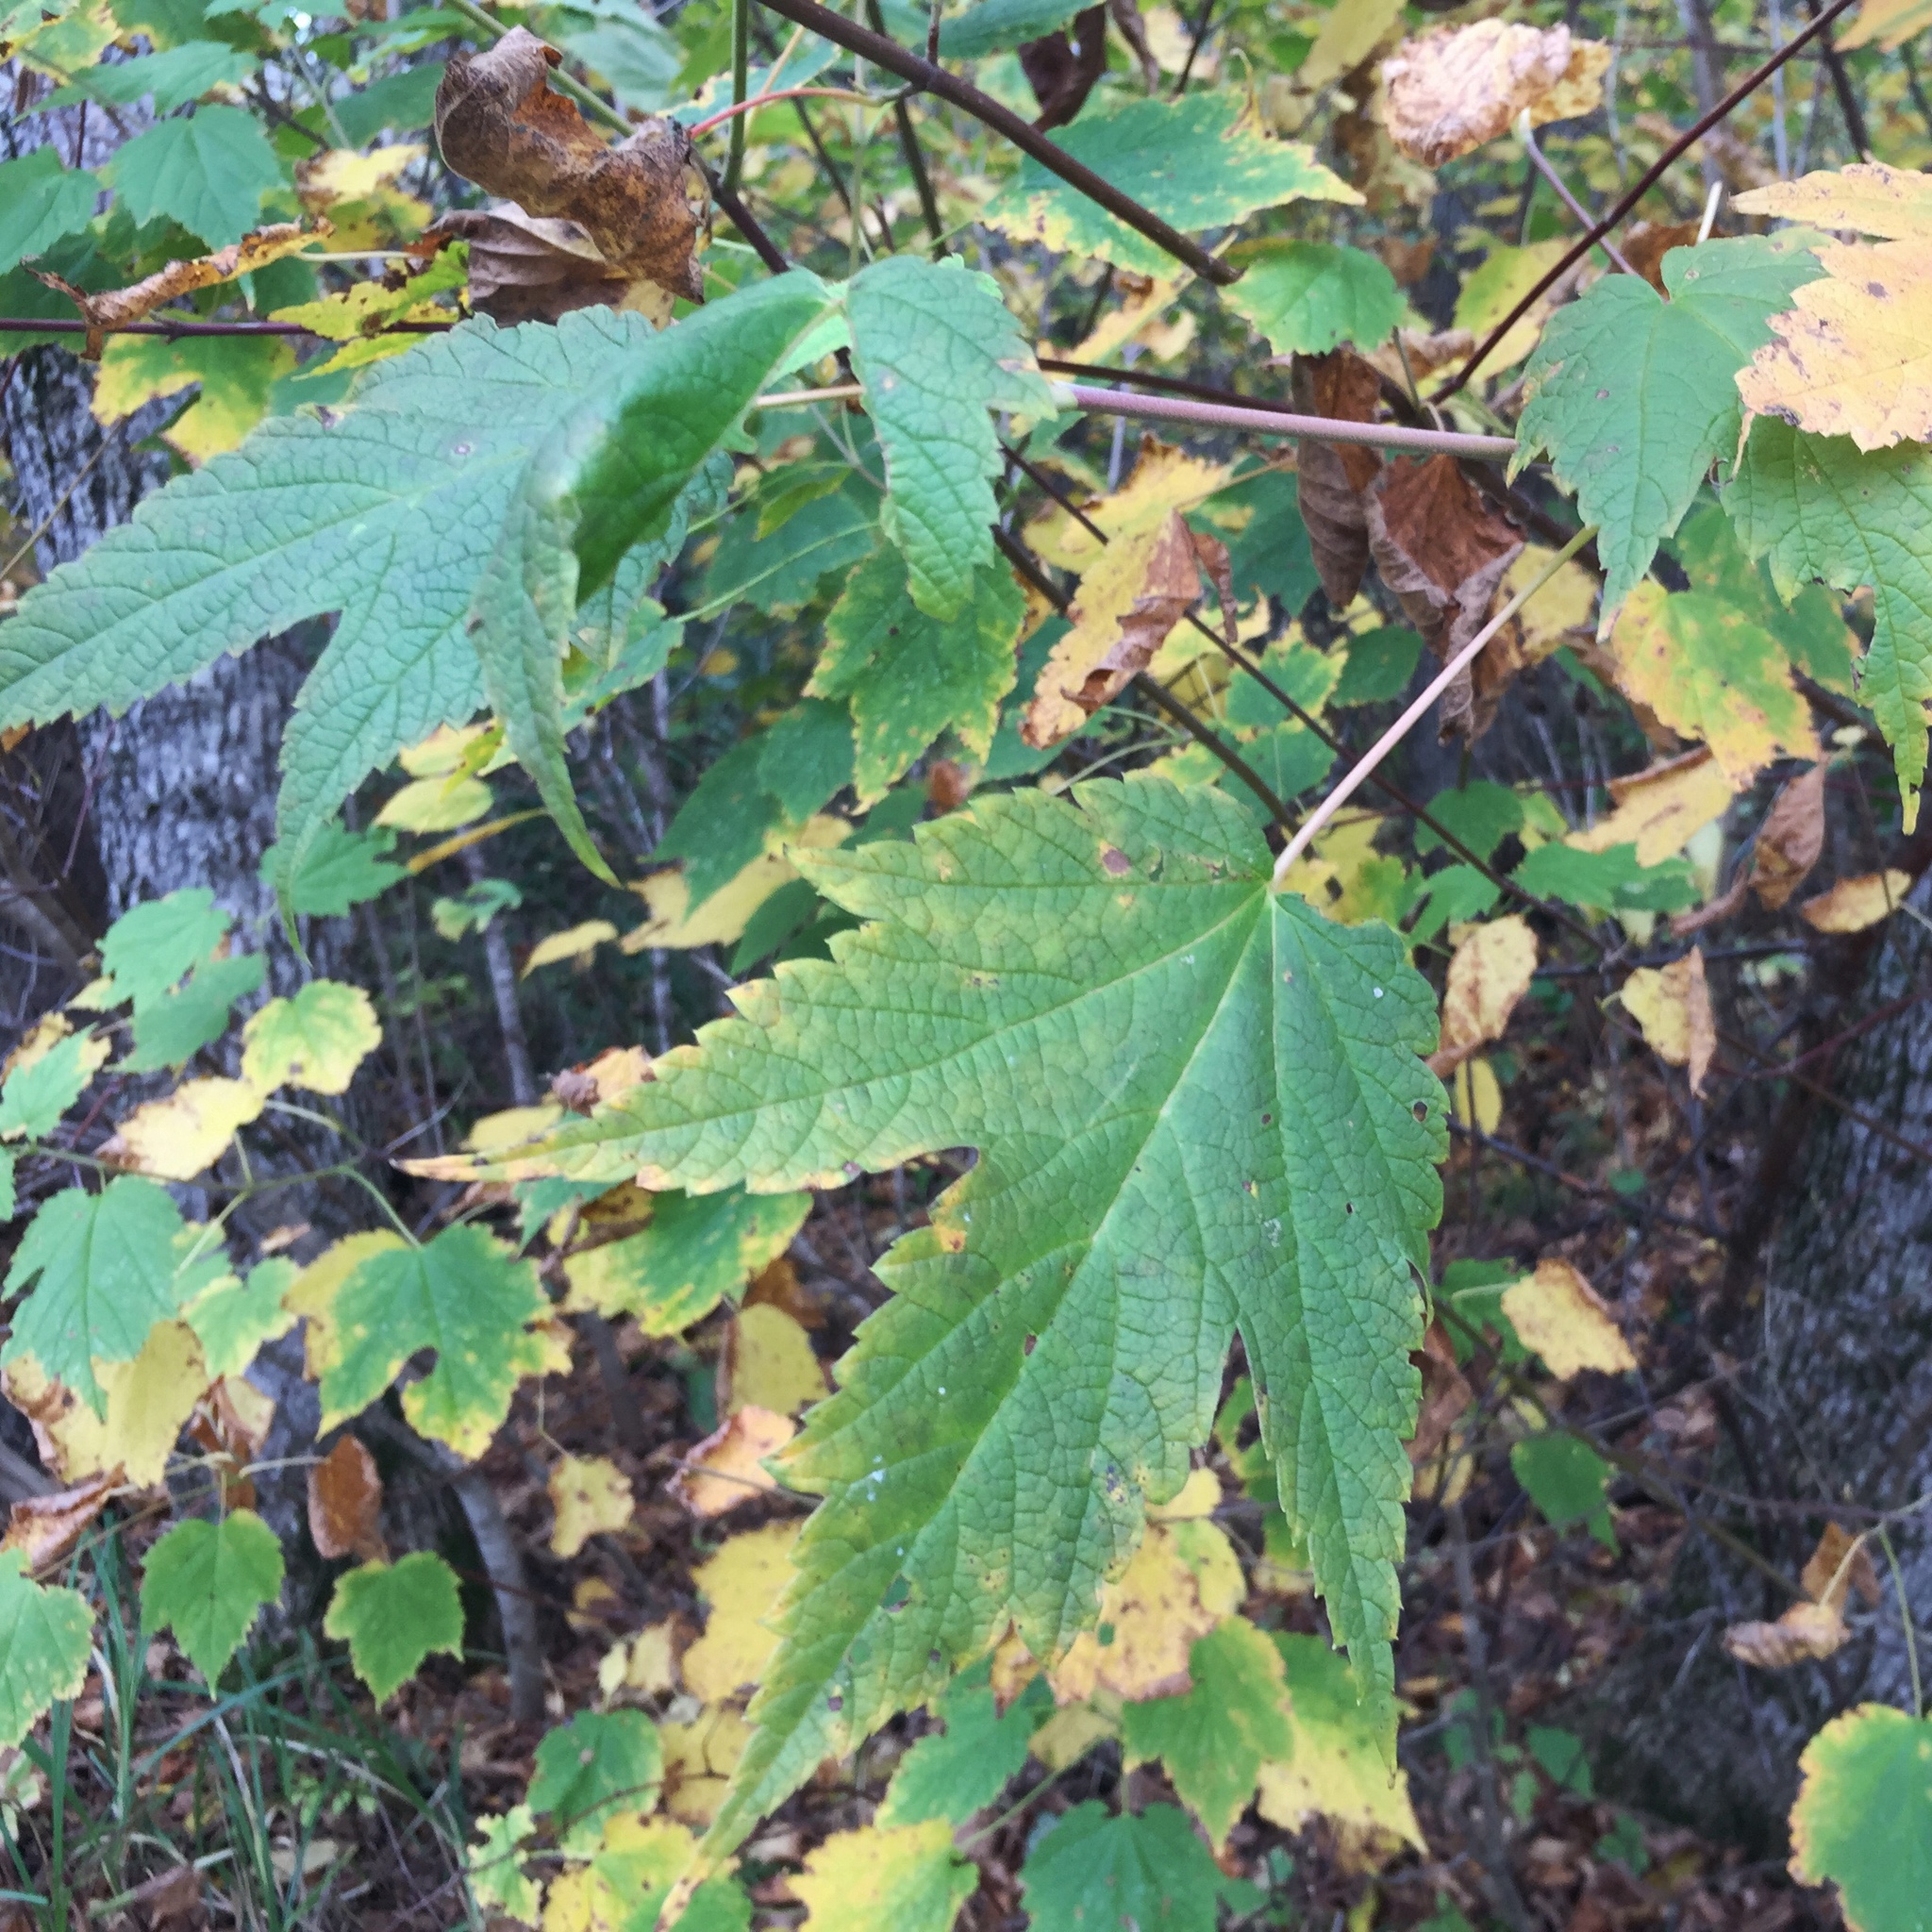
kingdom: Plantae
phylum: Tracheophyta
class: Magnoliopsida
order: Sapindales
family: Sapindaceae
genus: Acer
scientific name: Acer spicatum
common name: Mountain maple
